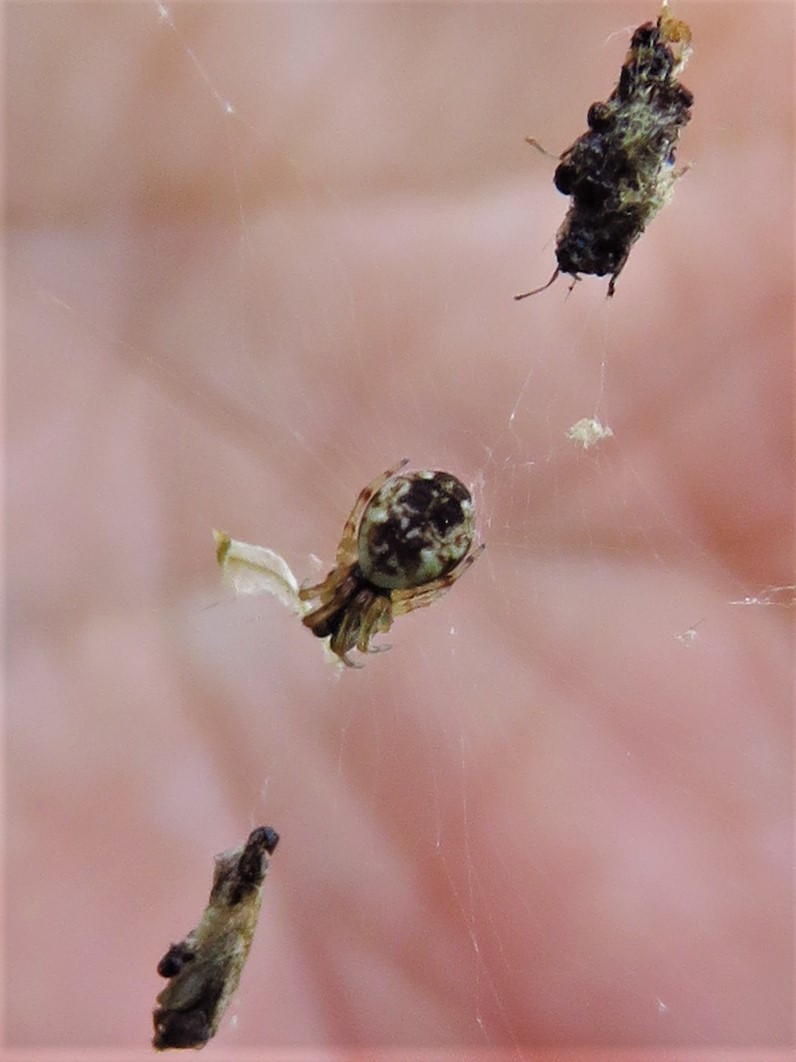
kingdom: Animalia
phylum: Arthropoda
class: Arachnida
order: Araneae
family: Araneidae
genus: Cyclosa
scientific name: Cyclosa turbinata
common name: Orb weavers
